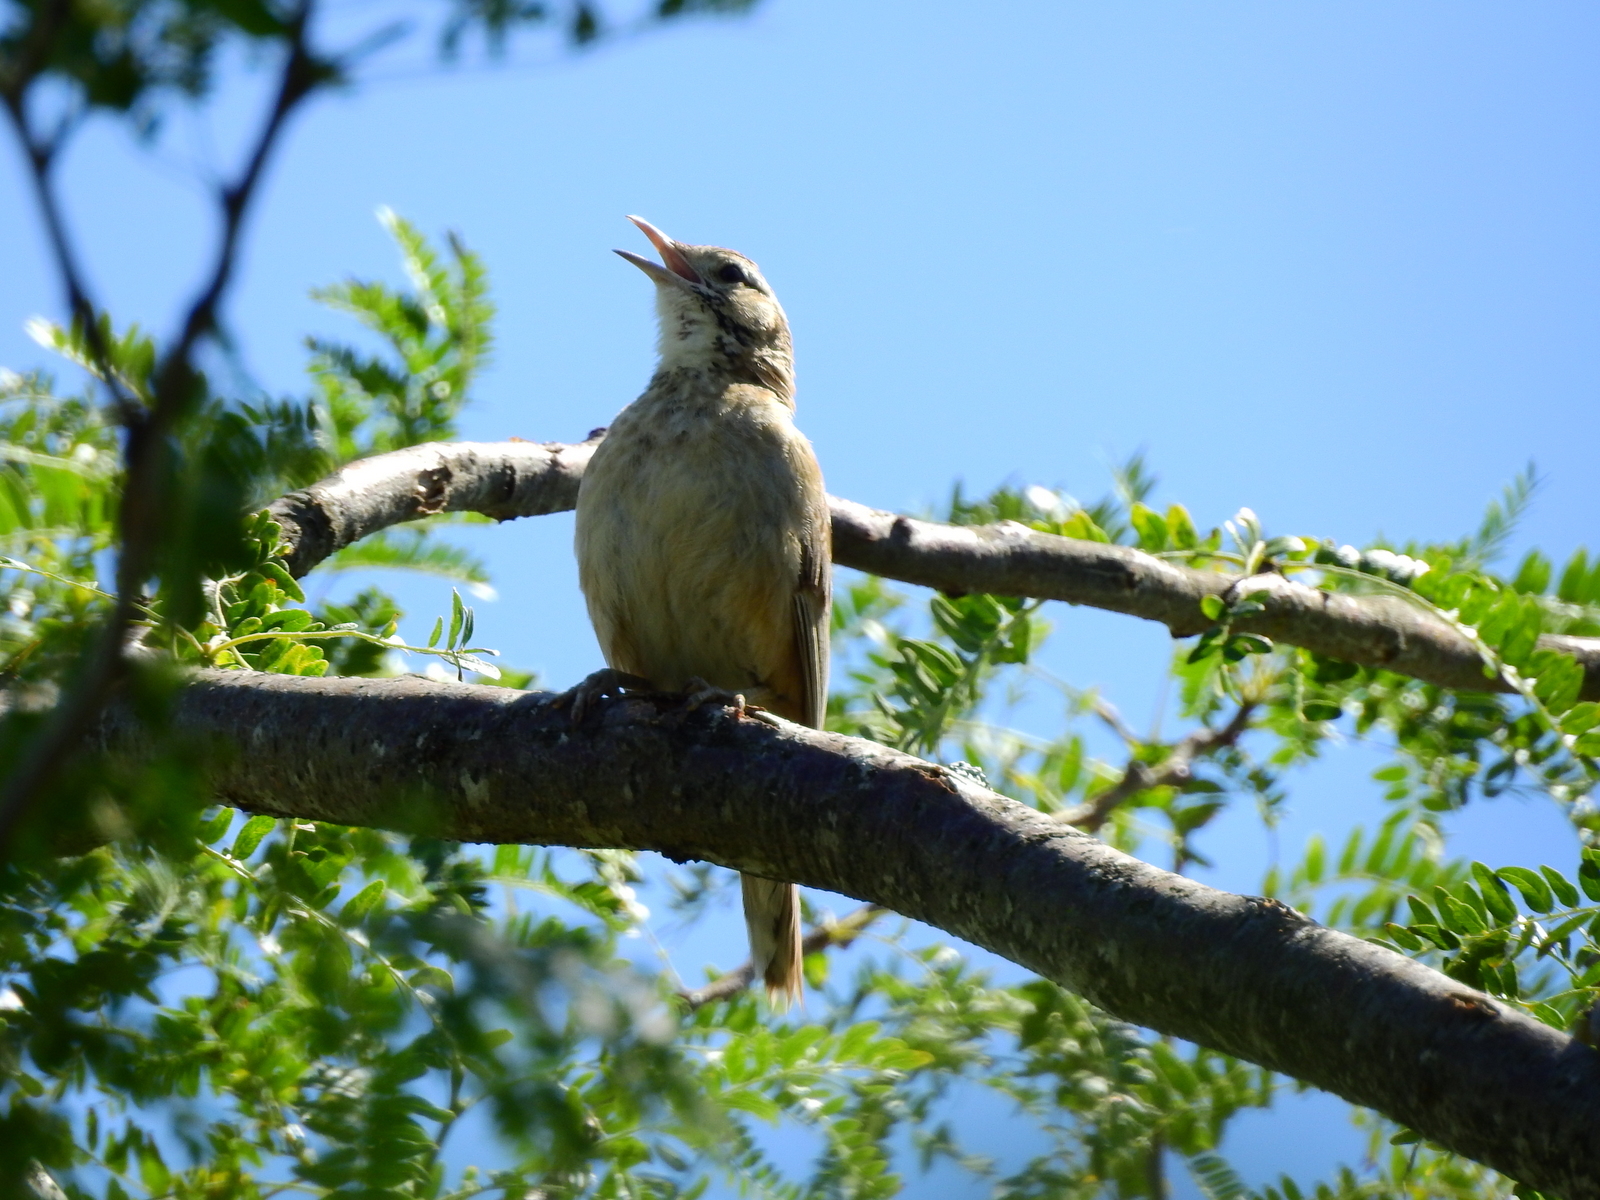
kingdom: Animalia
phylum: Chordata
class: Aves
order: Passeriformes
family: Furnariidae
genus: Anumbius
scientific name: Anumbius annumbi
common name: Firewood-gatherer
